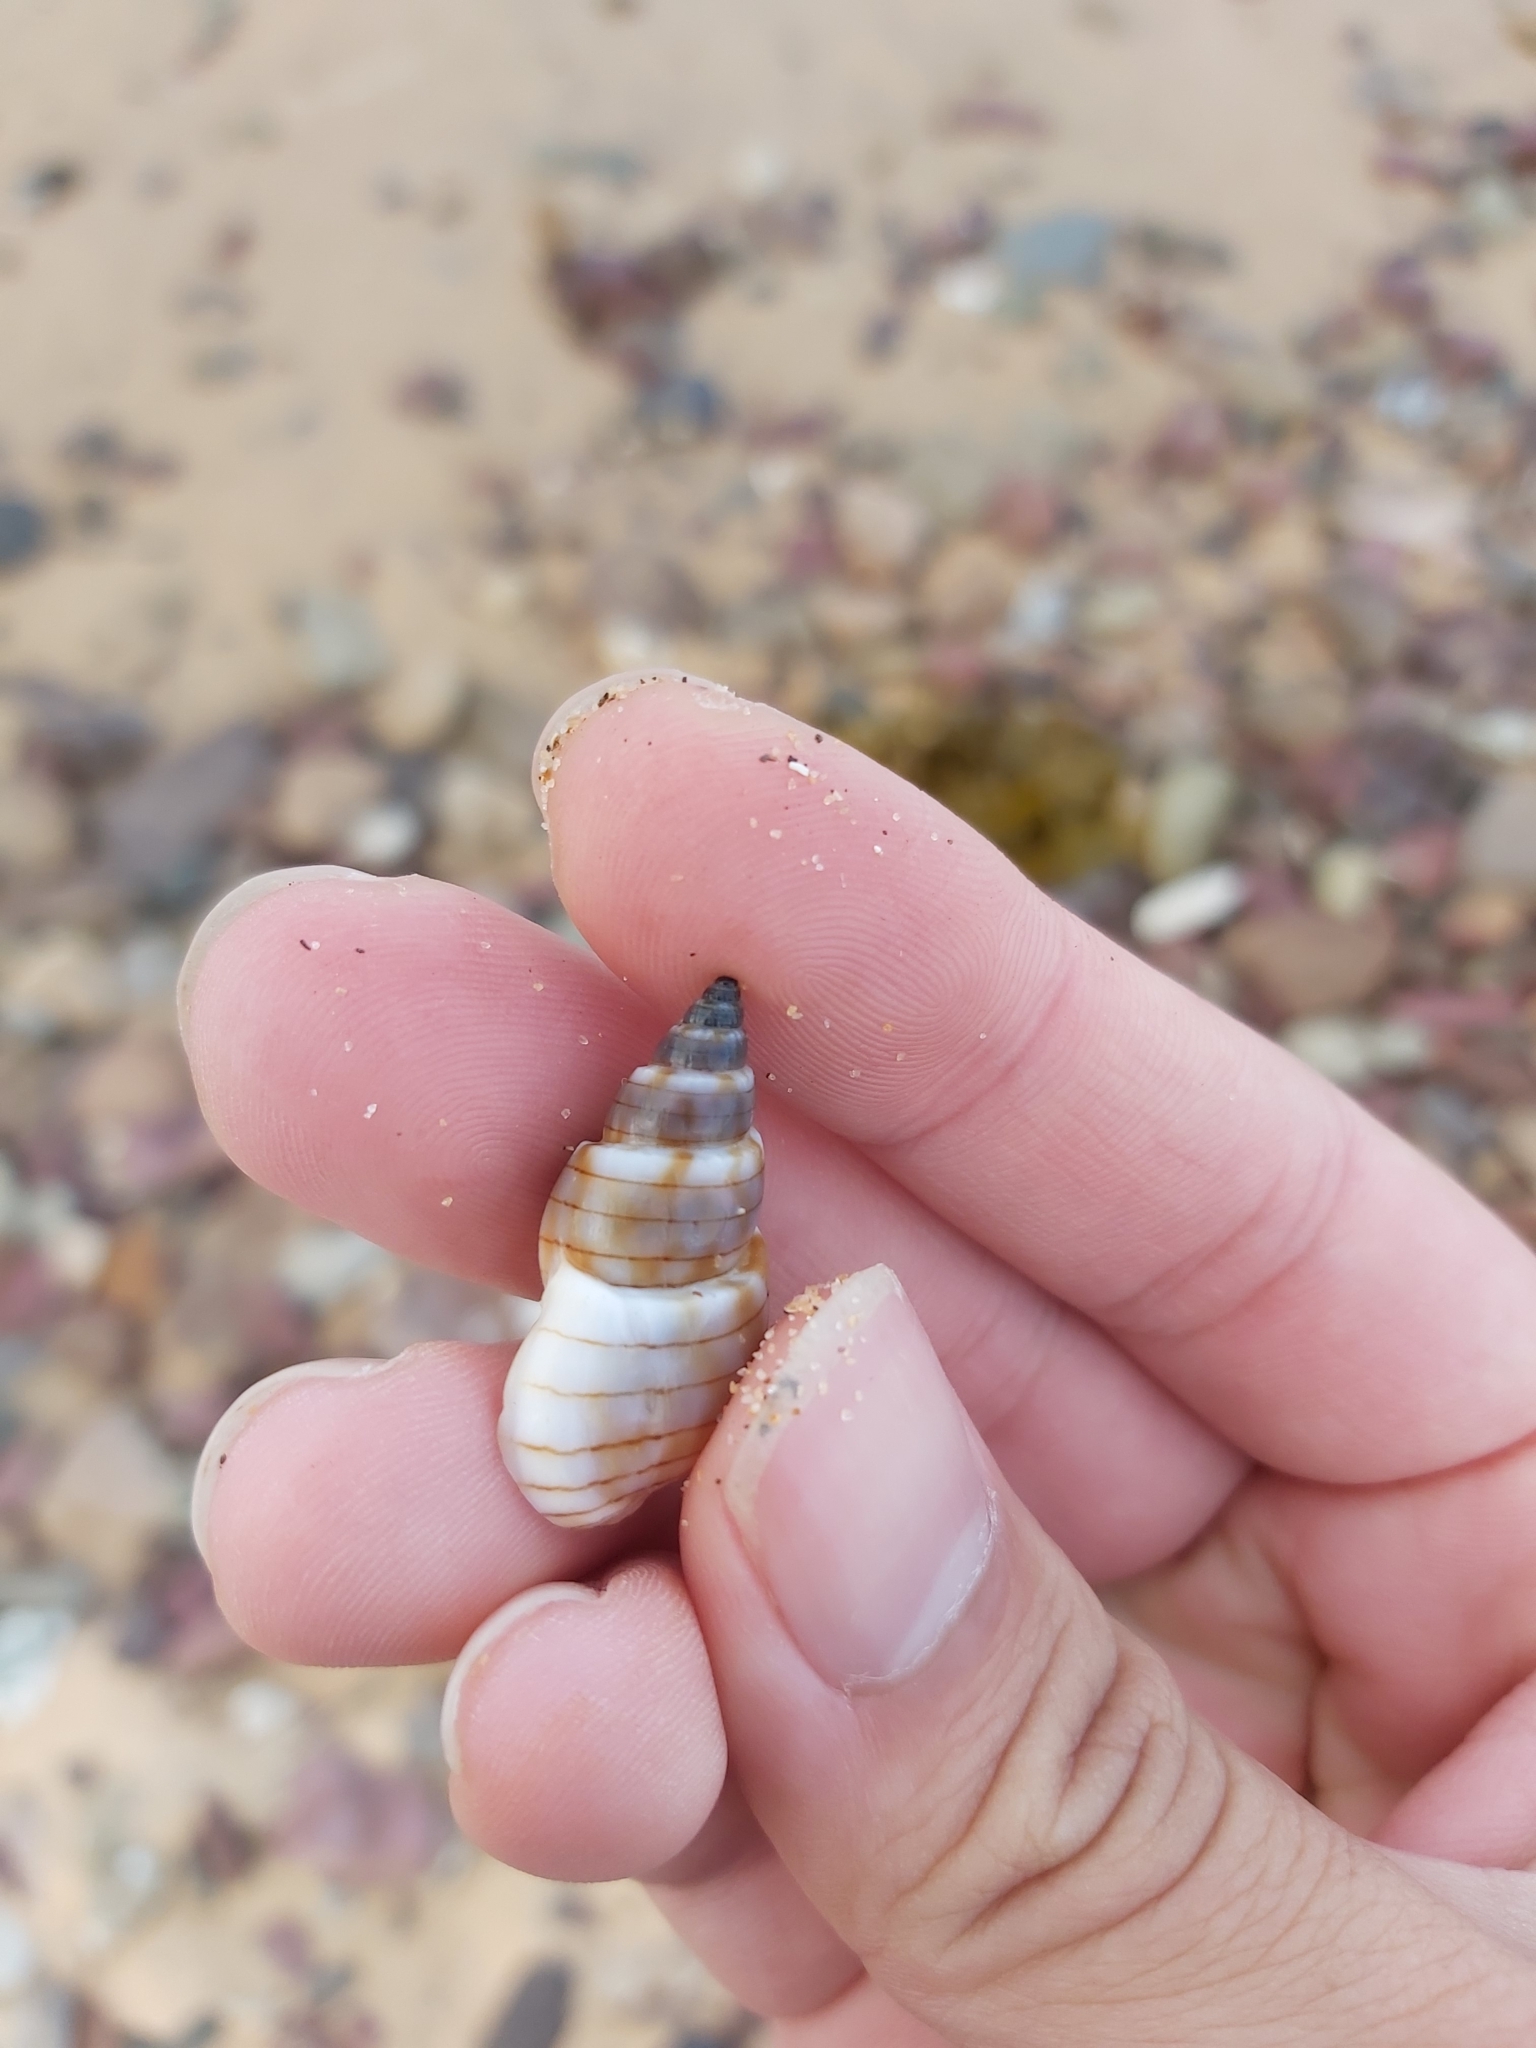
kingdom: Animalia
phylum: Mollusca
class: Gastropoda
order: Neogastropoda
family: Nassariidae
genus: Nassarius
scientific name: Nassarius particeps
